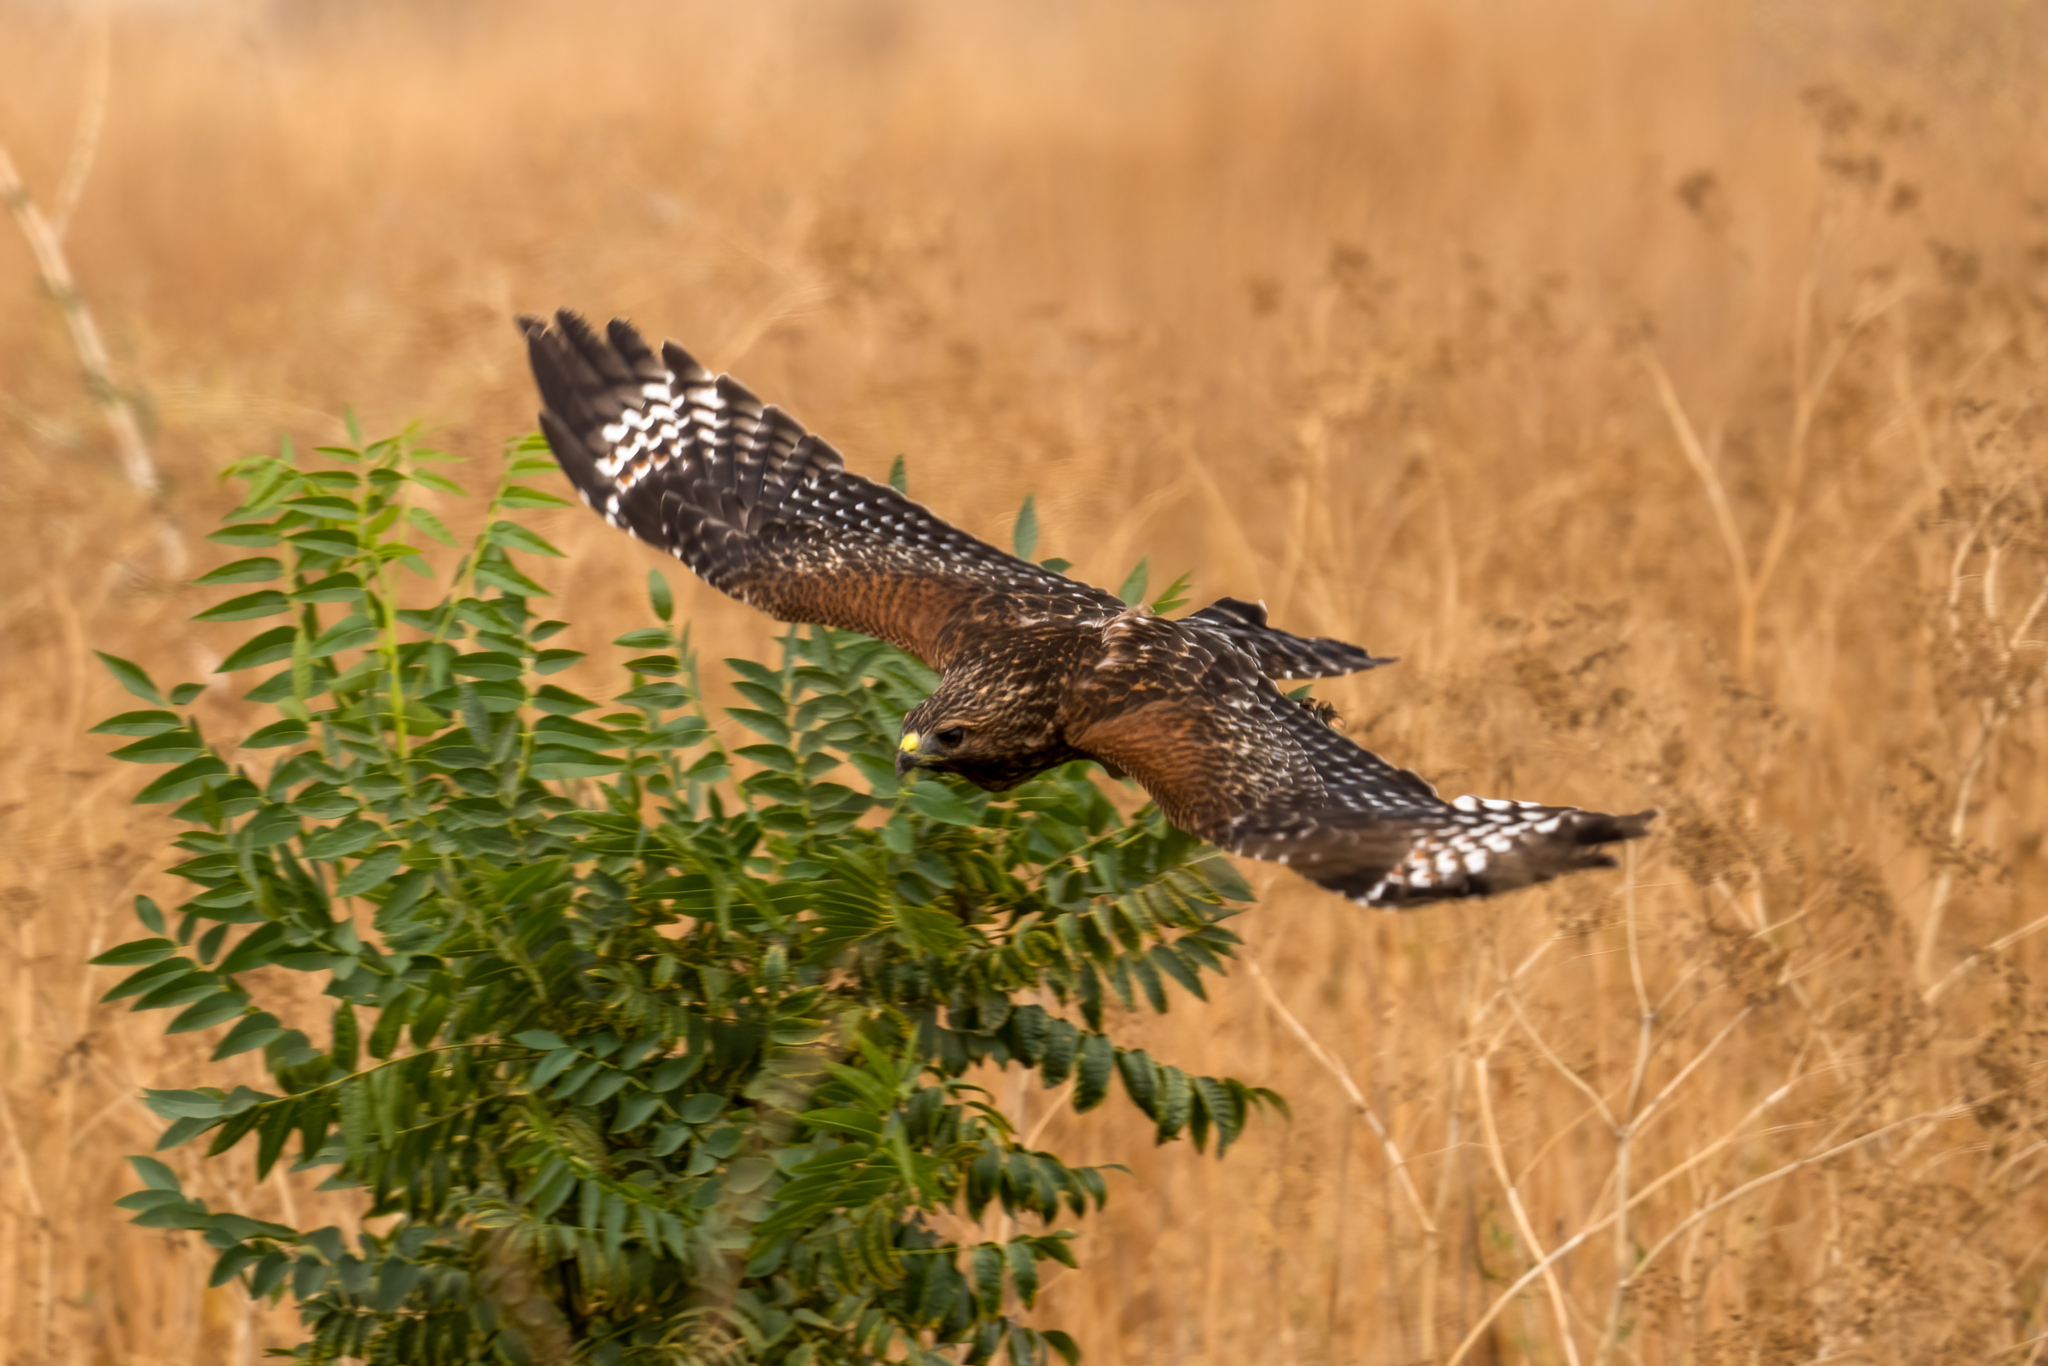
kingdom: Animalia
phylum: Chordata
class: Aves
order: Accipitriformes
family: Accipitridae
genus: Buteo
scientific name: Buteo lineatus
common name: Red-shouldered hawk
